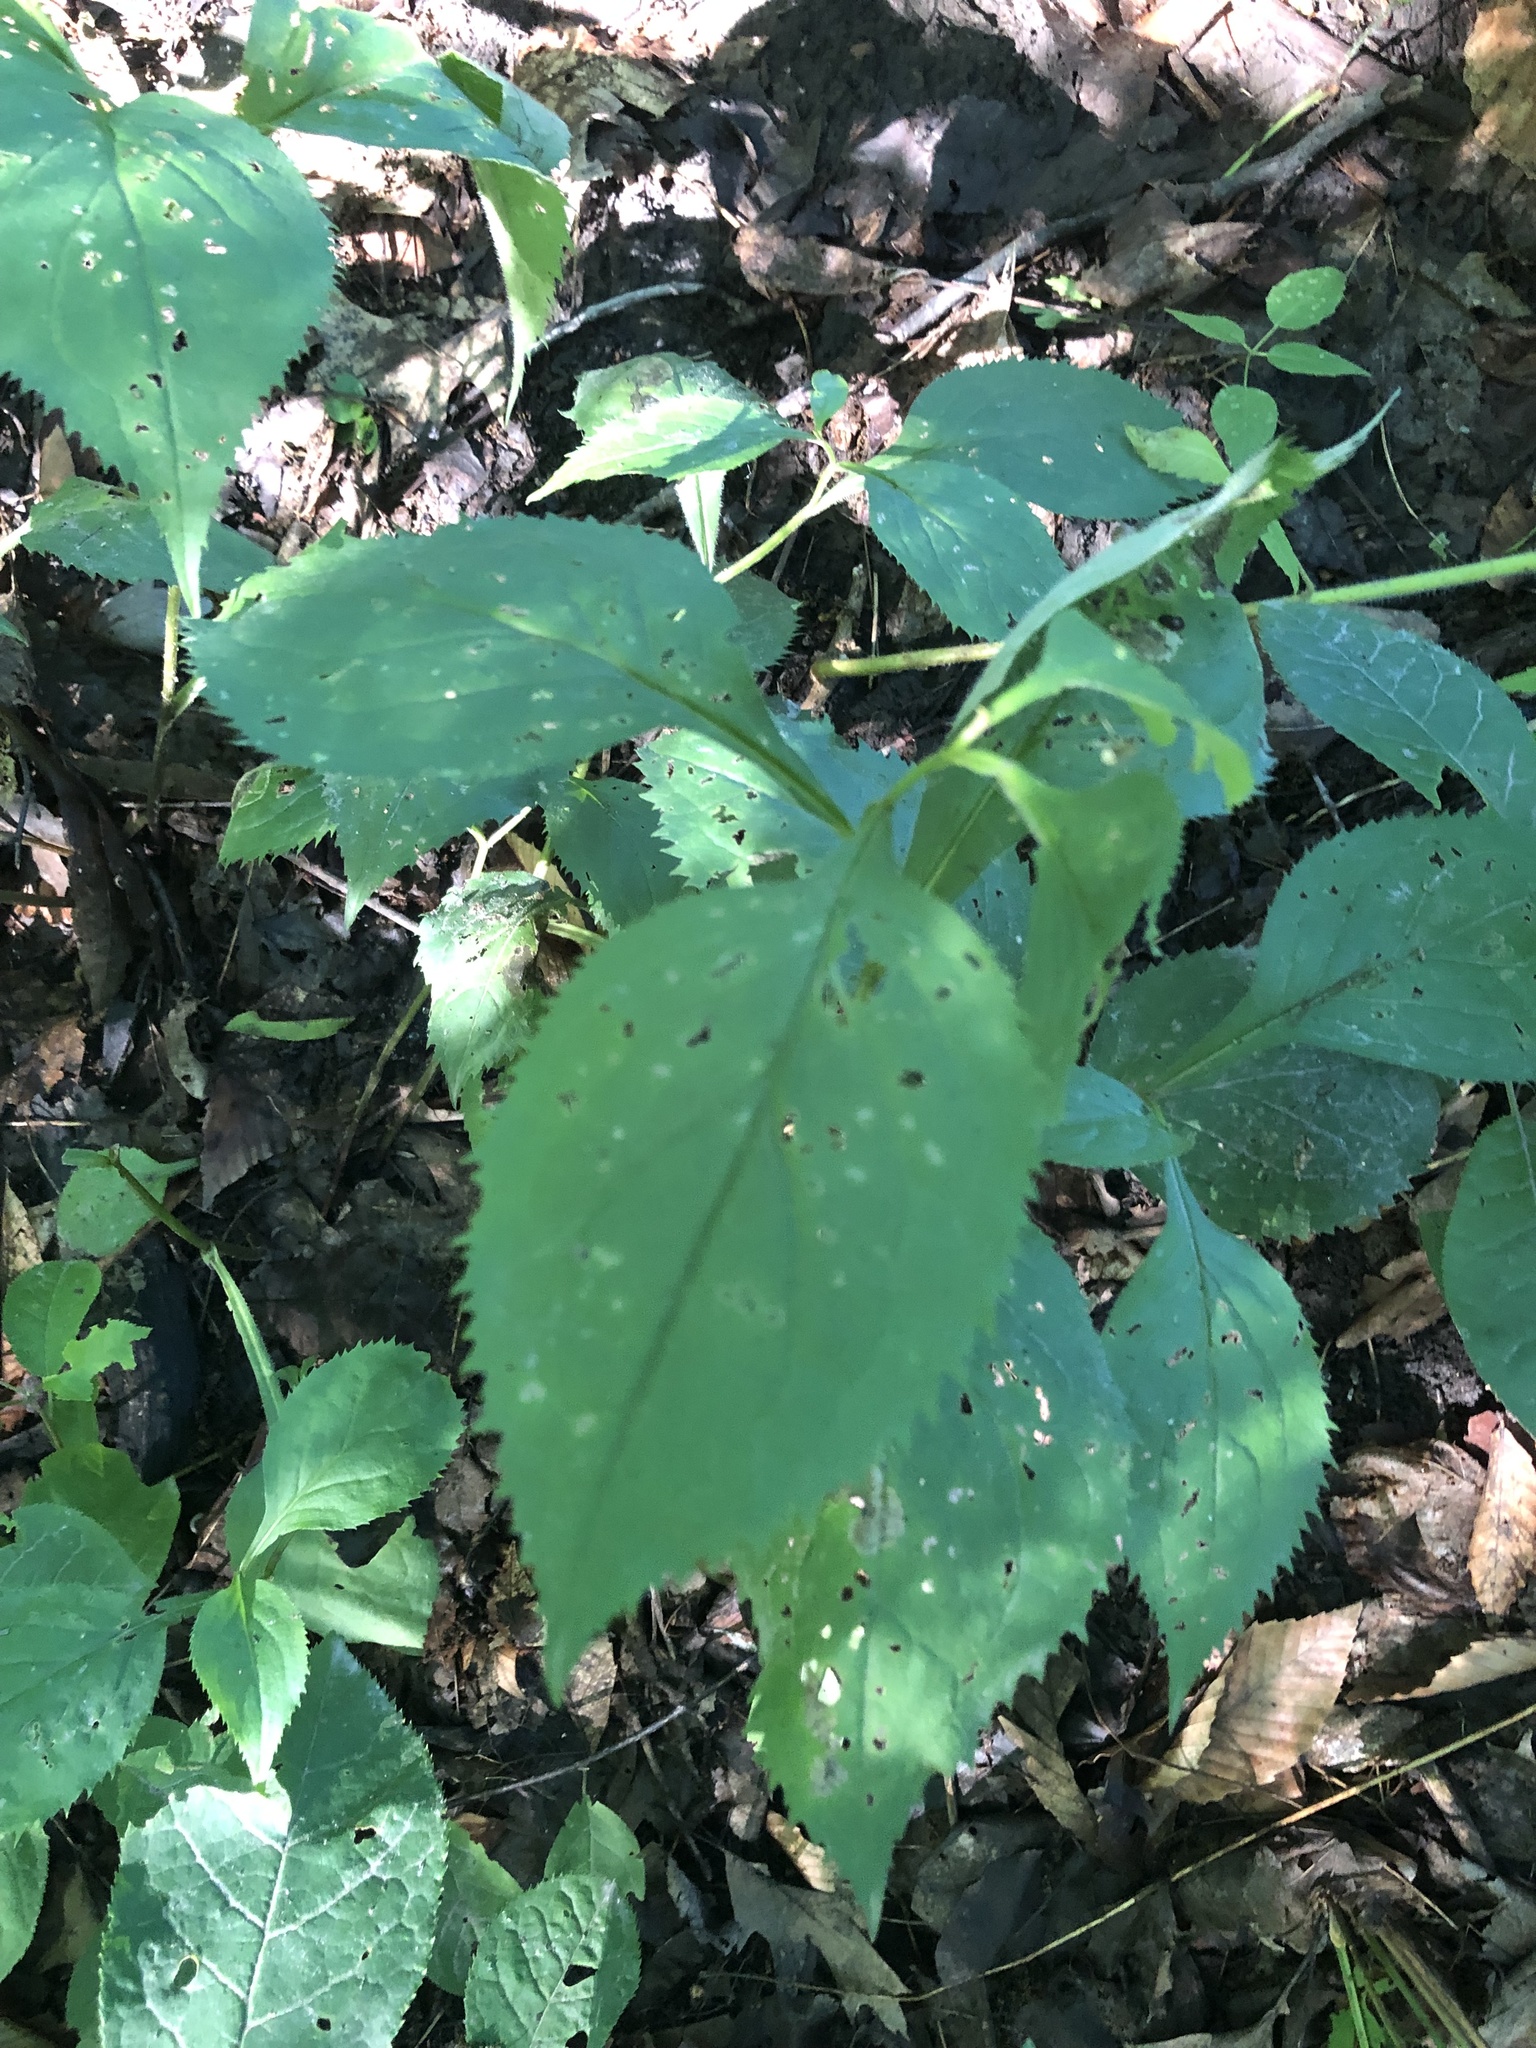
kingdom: Plantae
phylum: Tracheophyta
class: Magnoliopsida
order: Asterales
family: Asteraceae
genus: Solidago
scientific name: Solidago flexicaulis
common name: Zig-zag goldenrod
